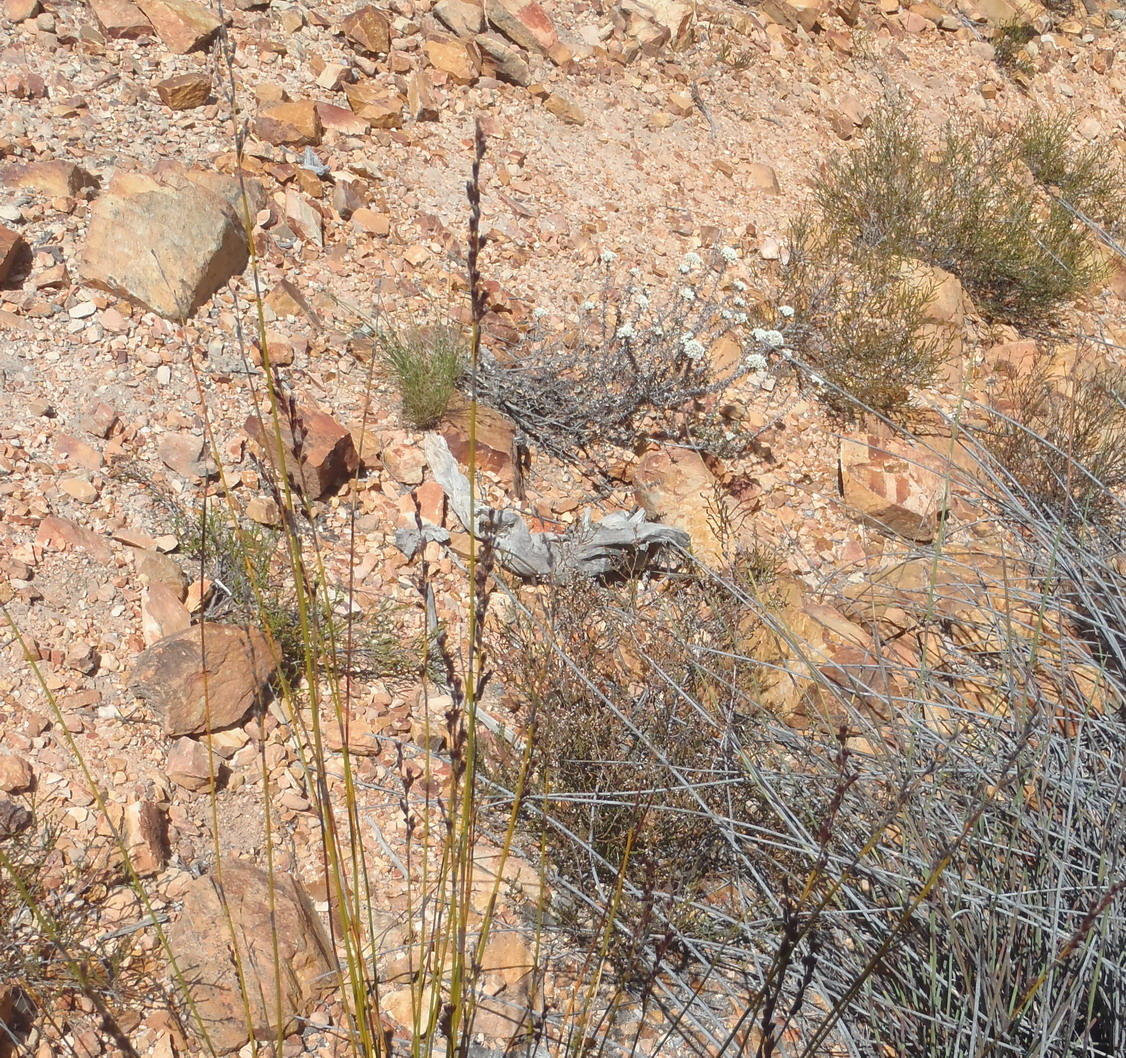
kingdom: Plantae
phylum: Tracheophyta
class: Liliopsida
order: Poales
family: Restionaceae
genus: Rhodocoma
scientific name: Rhodocoma fruticosa
